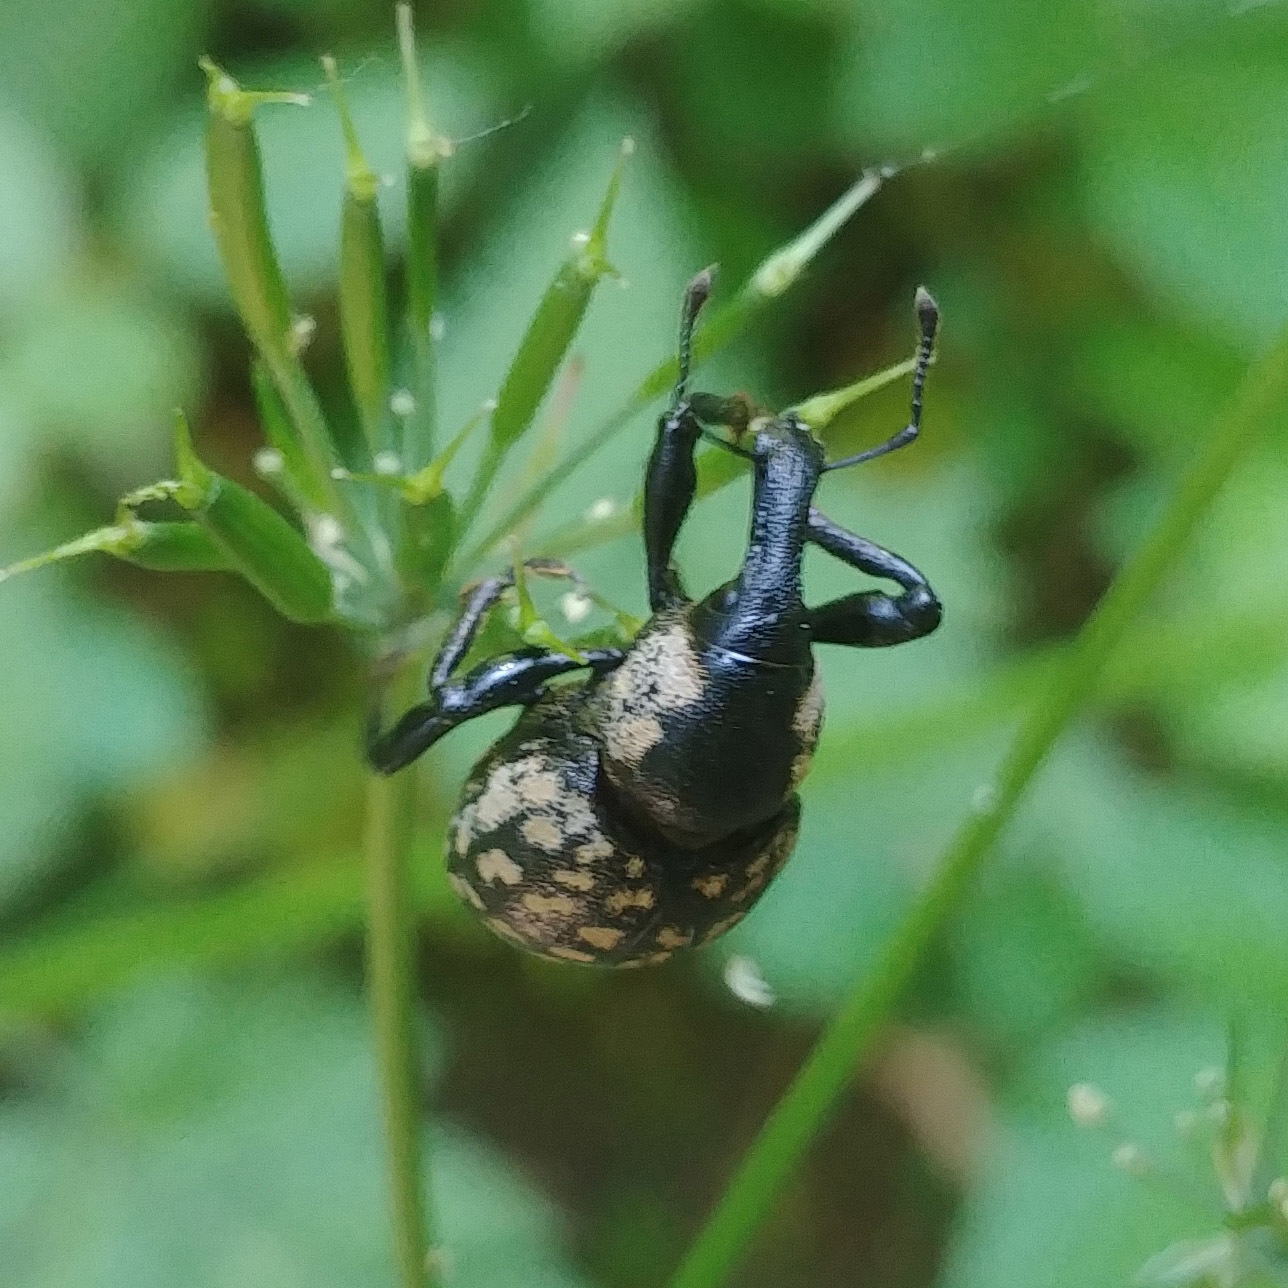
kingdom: Animalia
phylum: Arthropoda
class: Insecta
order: Coleoptera
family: Curculionidae
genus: Liparus
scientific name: Liparus glabrirostris
